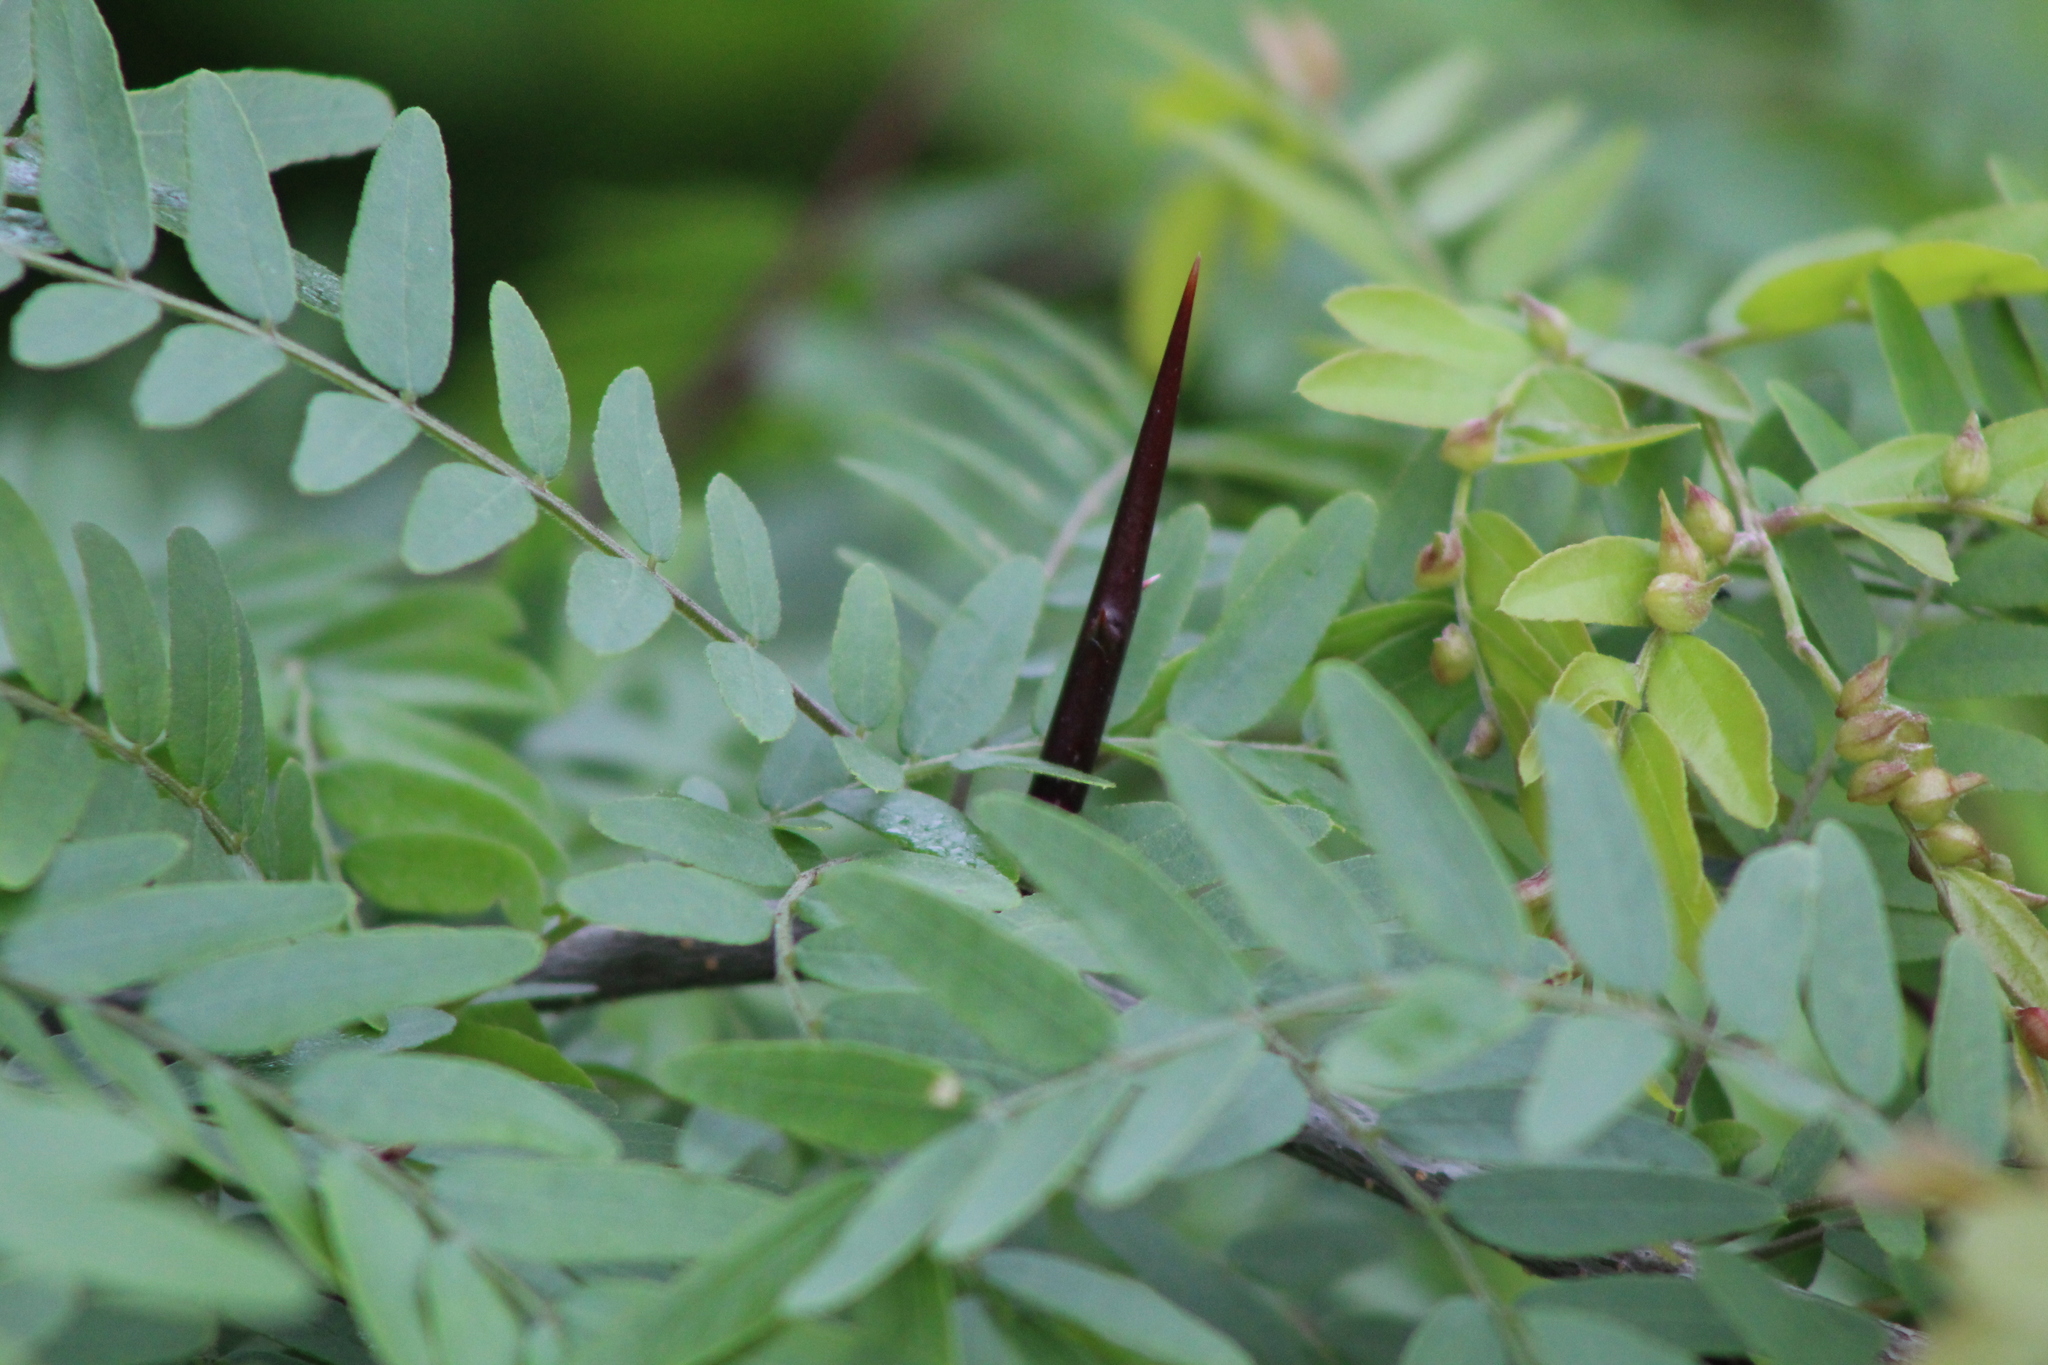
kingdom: Plantae
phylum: Tracheophyta
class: Magnoliopsida
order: Fabales
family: Fabaceae
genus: Gleditsia
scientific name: Gleditsia triacanthos
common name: Common honeylocust
